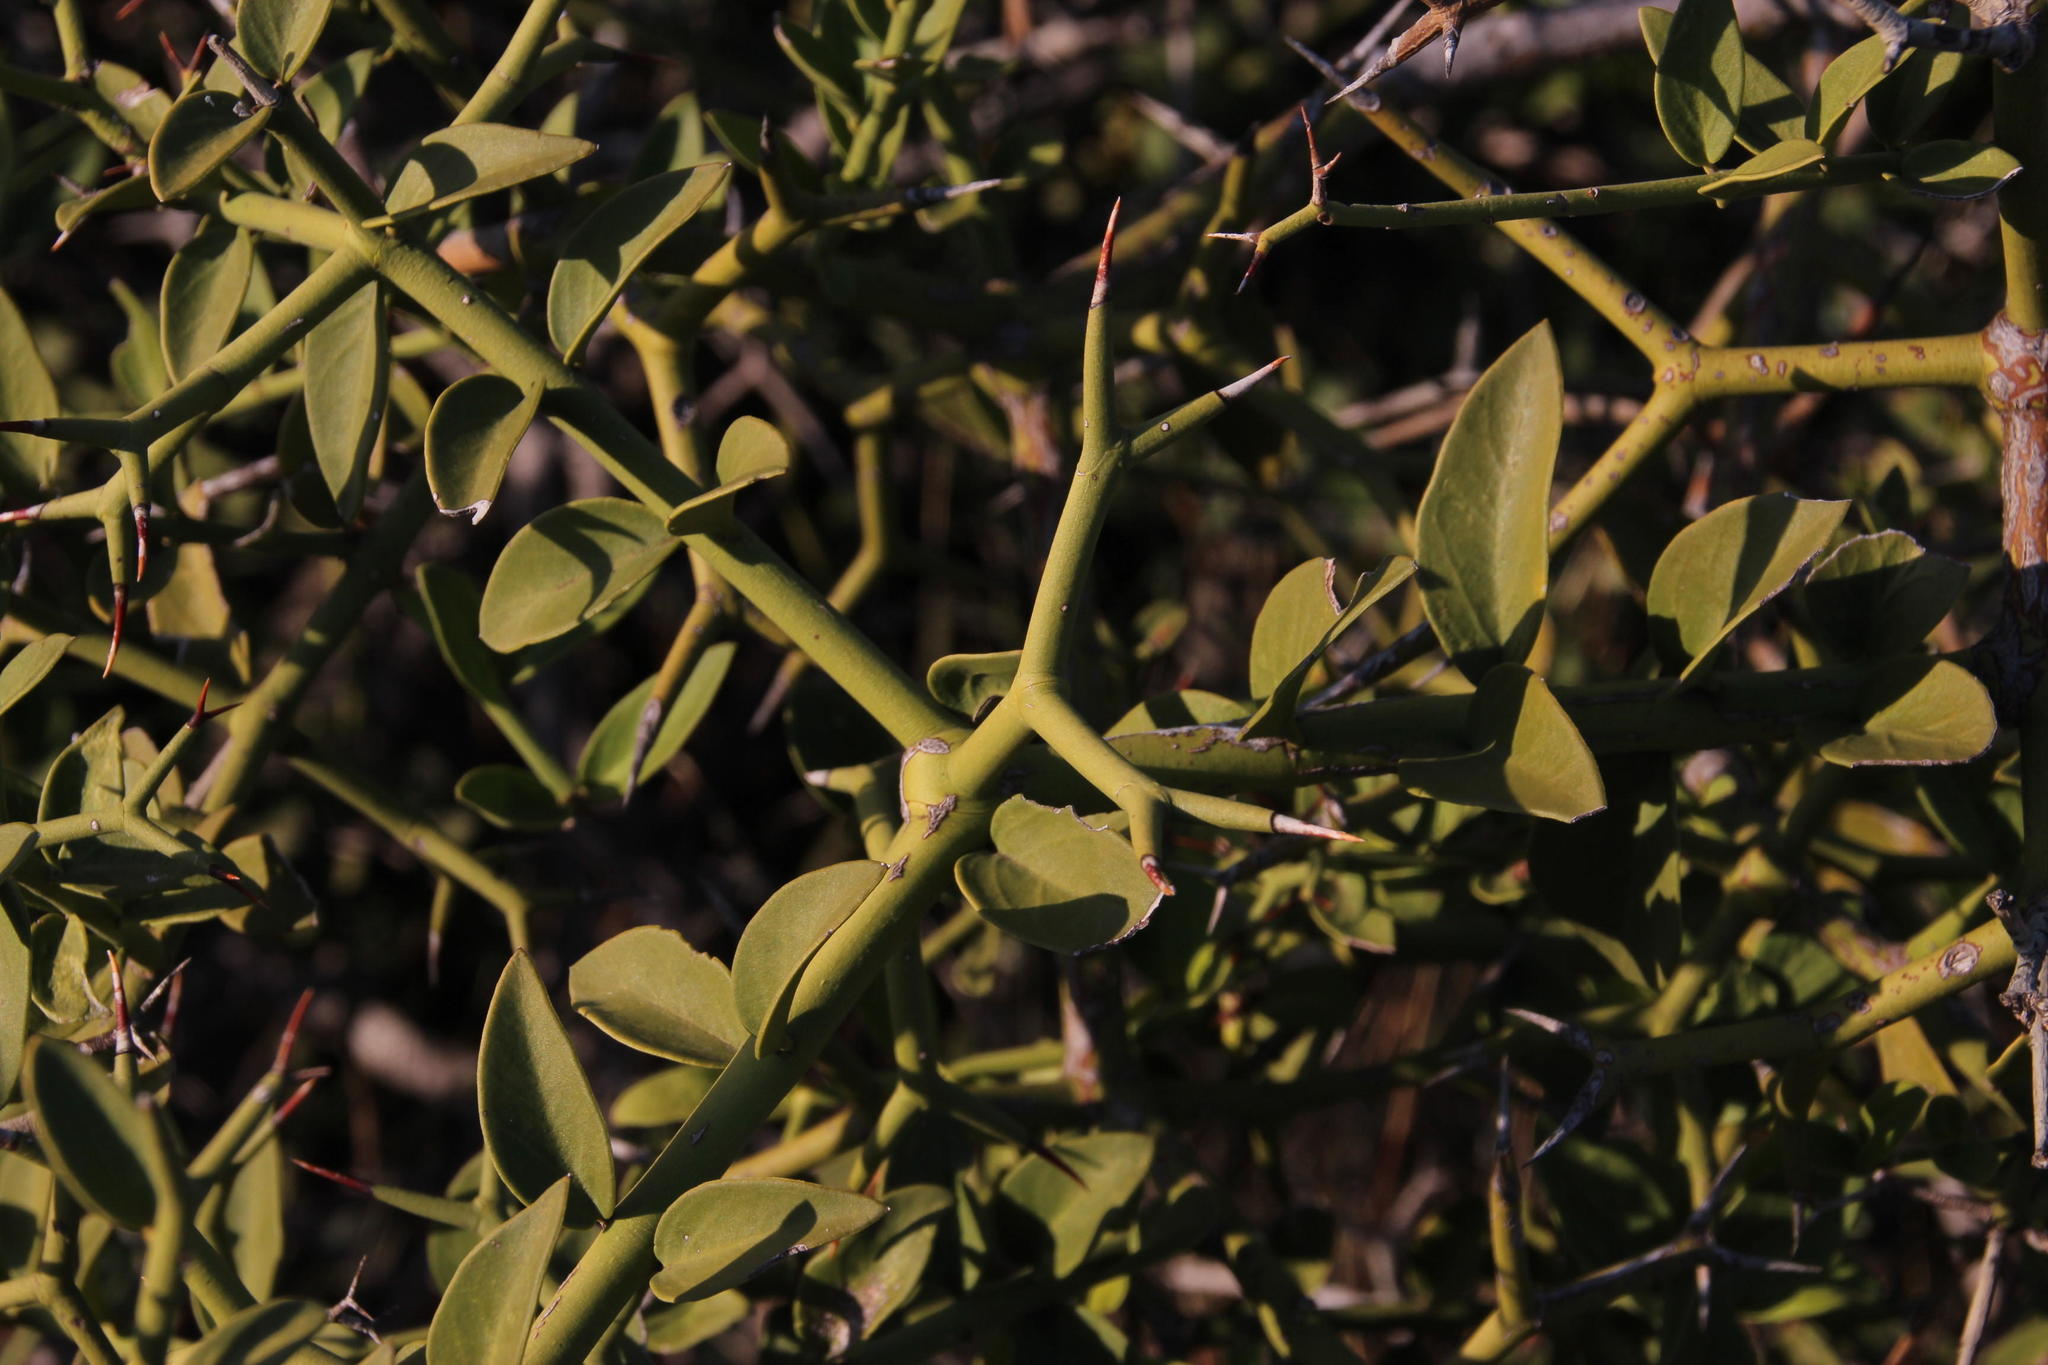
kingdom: Plantae
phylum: Tracheophyta
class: Magnoliopsida
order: Gentianales
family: Apocynaceae
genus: Carissa
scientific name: Carissa haematocarpa
